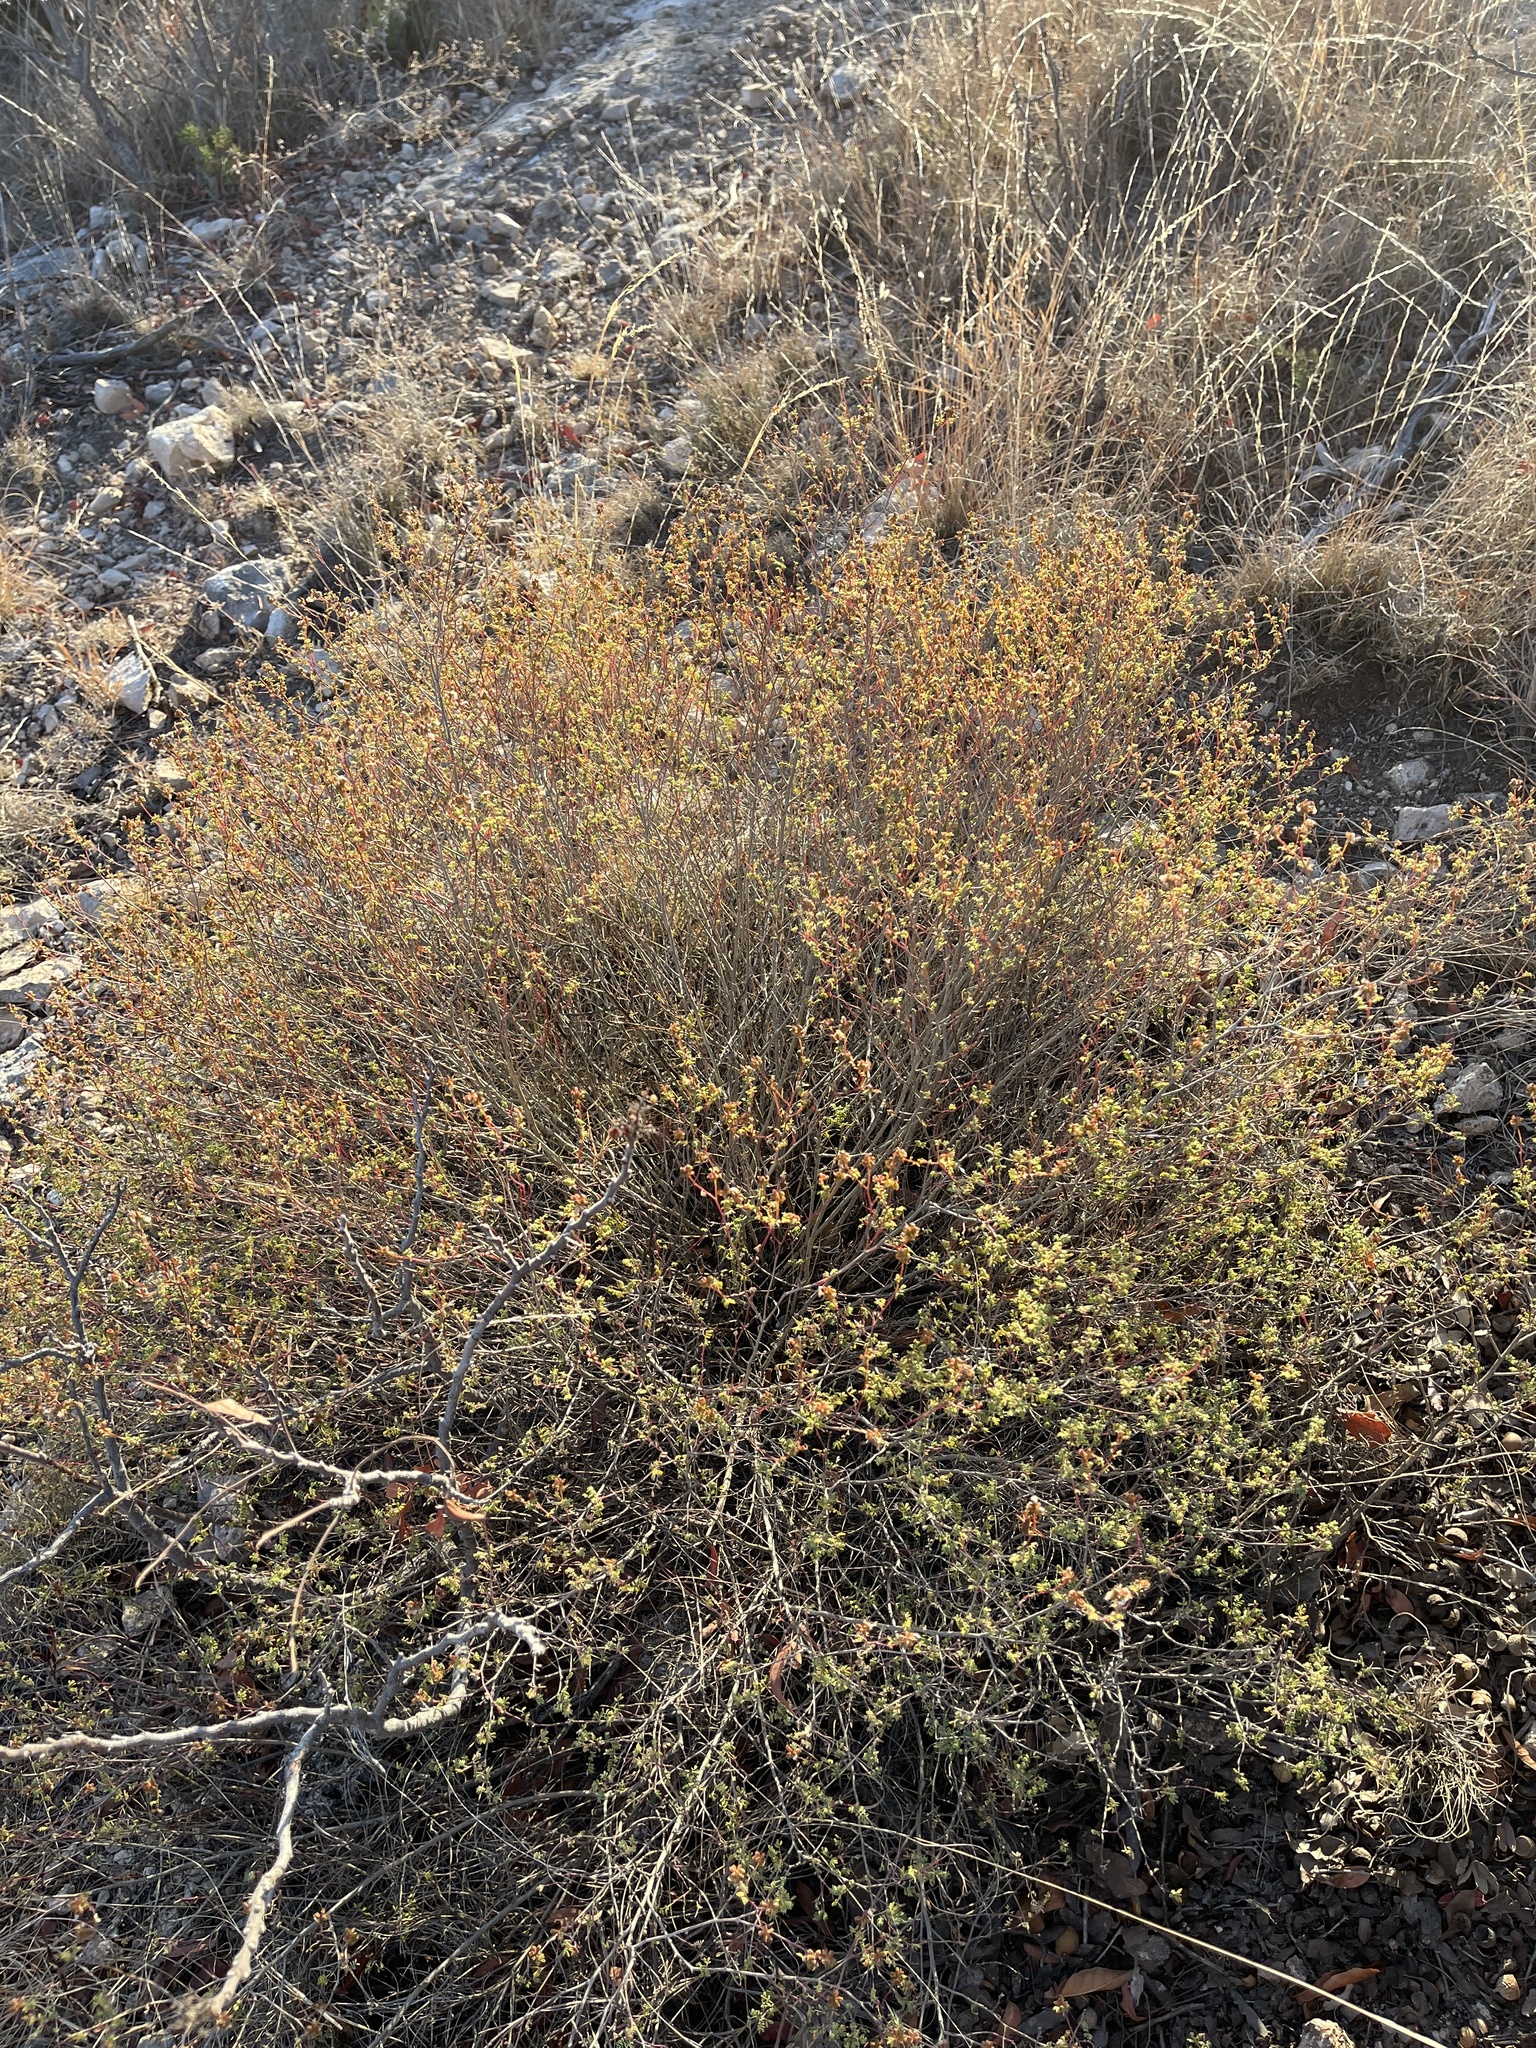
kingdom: Plantae
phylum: Tracheophyta
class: Magnoliopsida
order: Fabales
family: Fabaceae
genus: Dalea
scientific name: Dalea frutescens
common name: Black dalea
